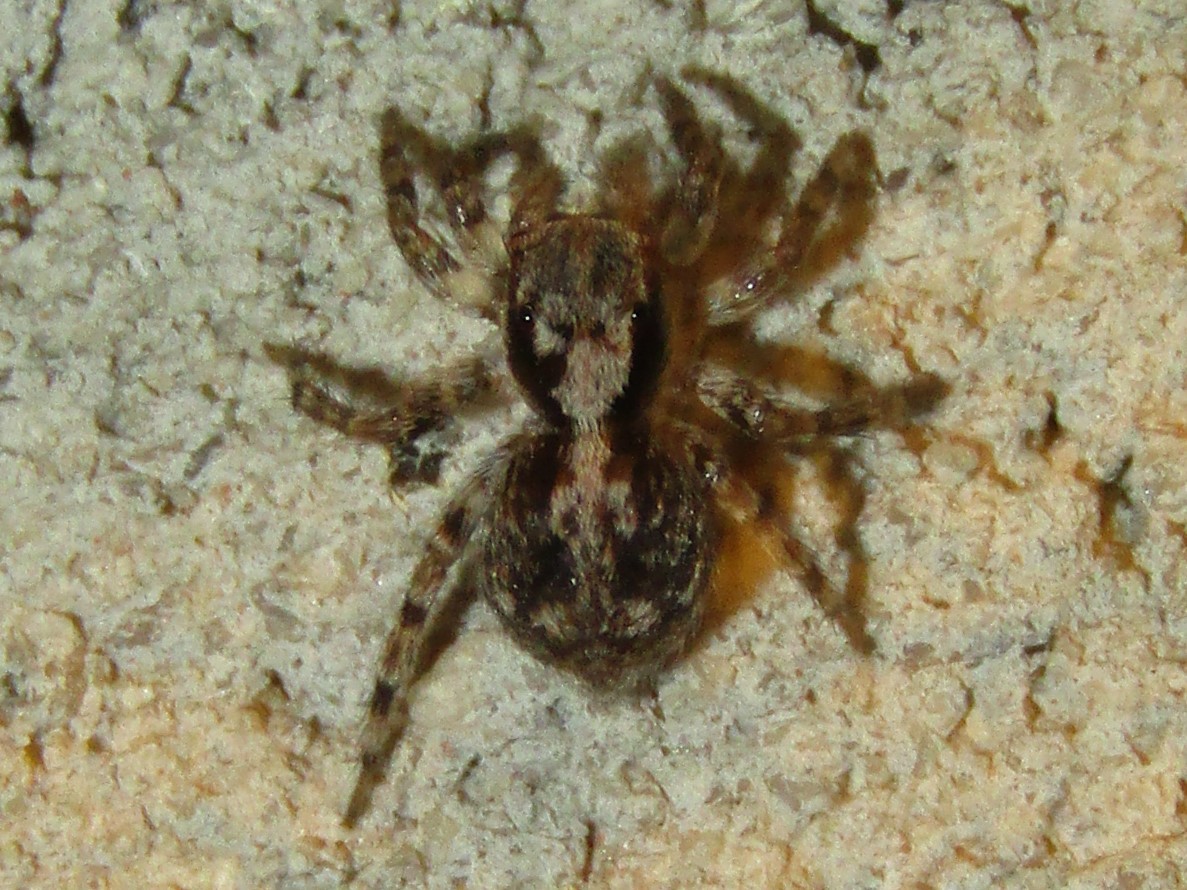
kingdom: Animalia
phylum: Arthropoda
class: Arachnida
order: Araneae
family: Salticidae
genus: Naphrys
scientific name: Naphrys pulex
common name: Flea jumping spider
